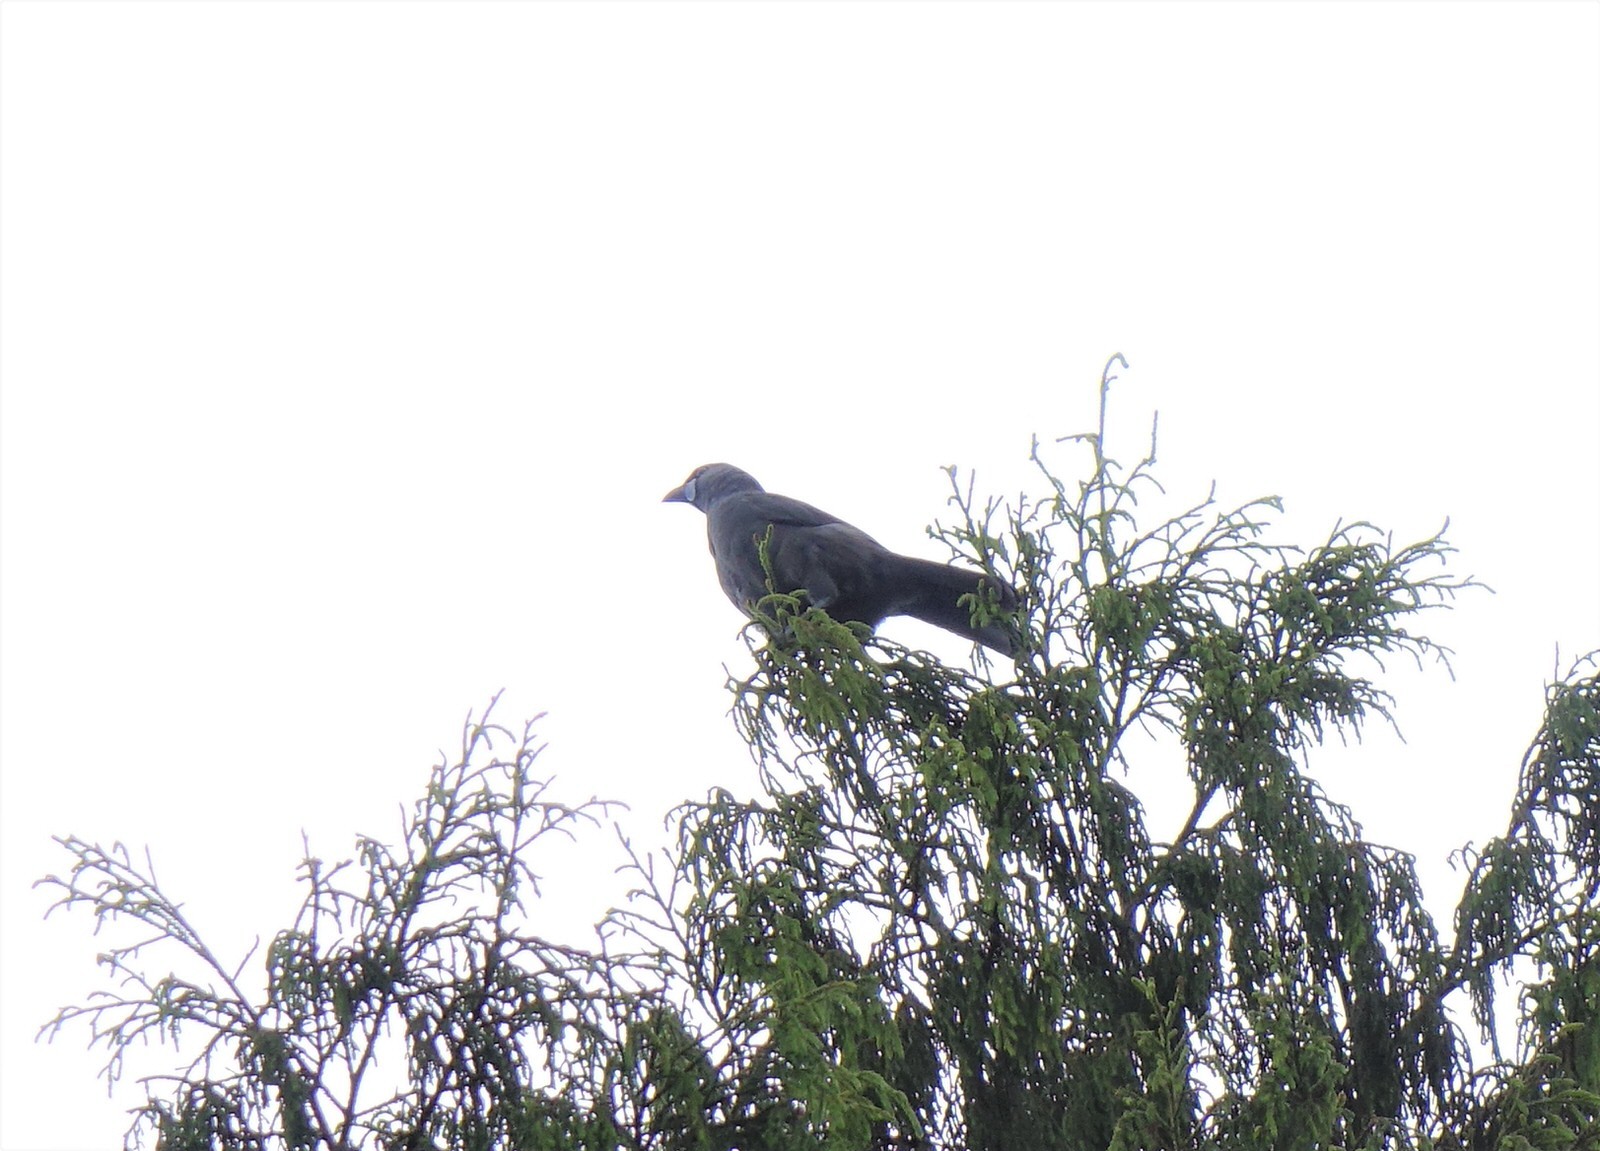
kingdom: Animalia
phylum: Chordata
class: Aves
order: Passeriformes
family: Callaeatidae
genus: Callaeas
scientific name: Callaeas cinereus
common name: South island kokako
